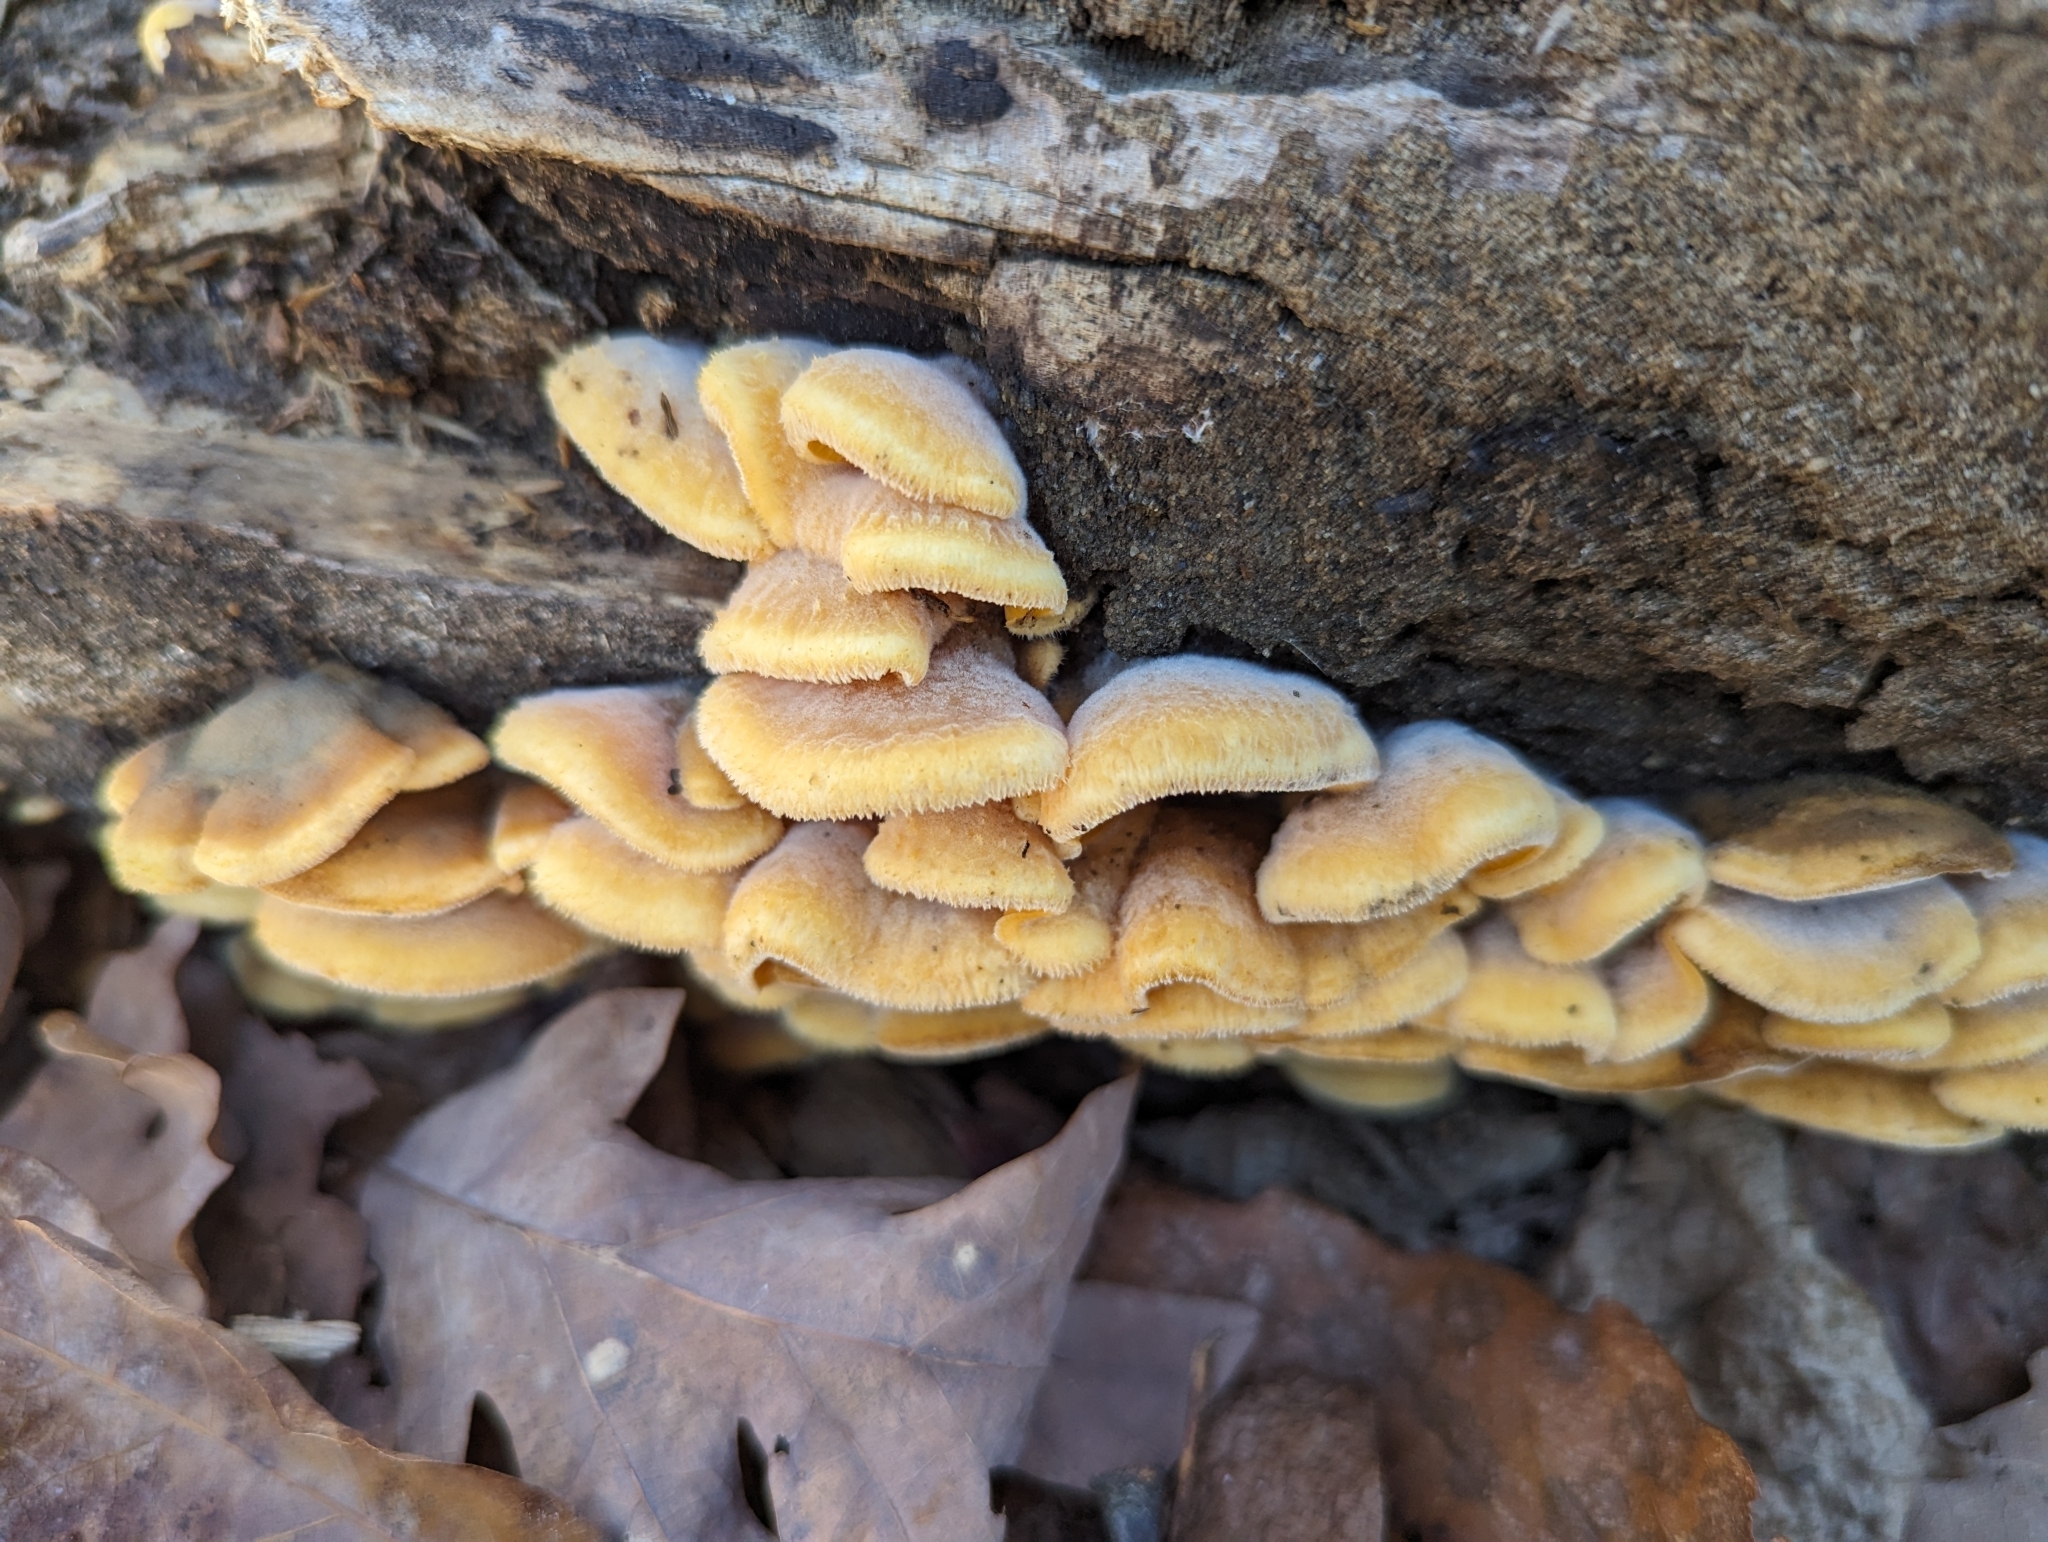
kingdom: Fungi
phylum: Basidiomycota
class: Agaricomycetes
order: Agaricales
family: Phyllotopsidaceae
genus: Phyllotopsis
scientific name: Phyllotopsis nidulans
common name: Orange mock oyster
